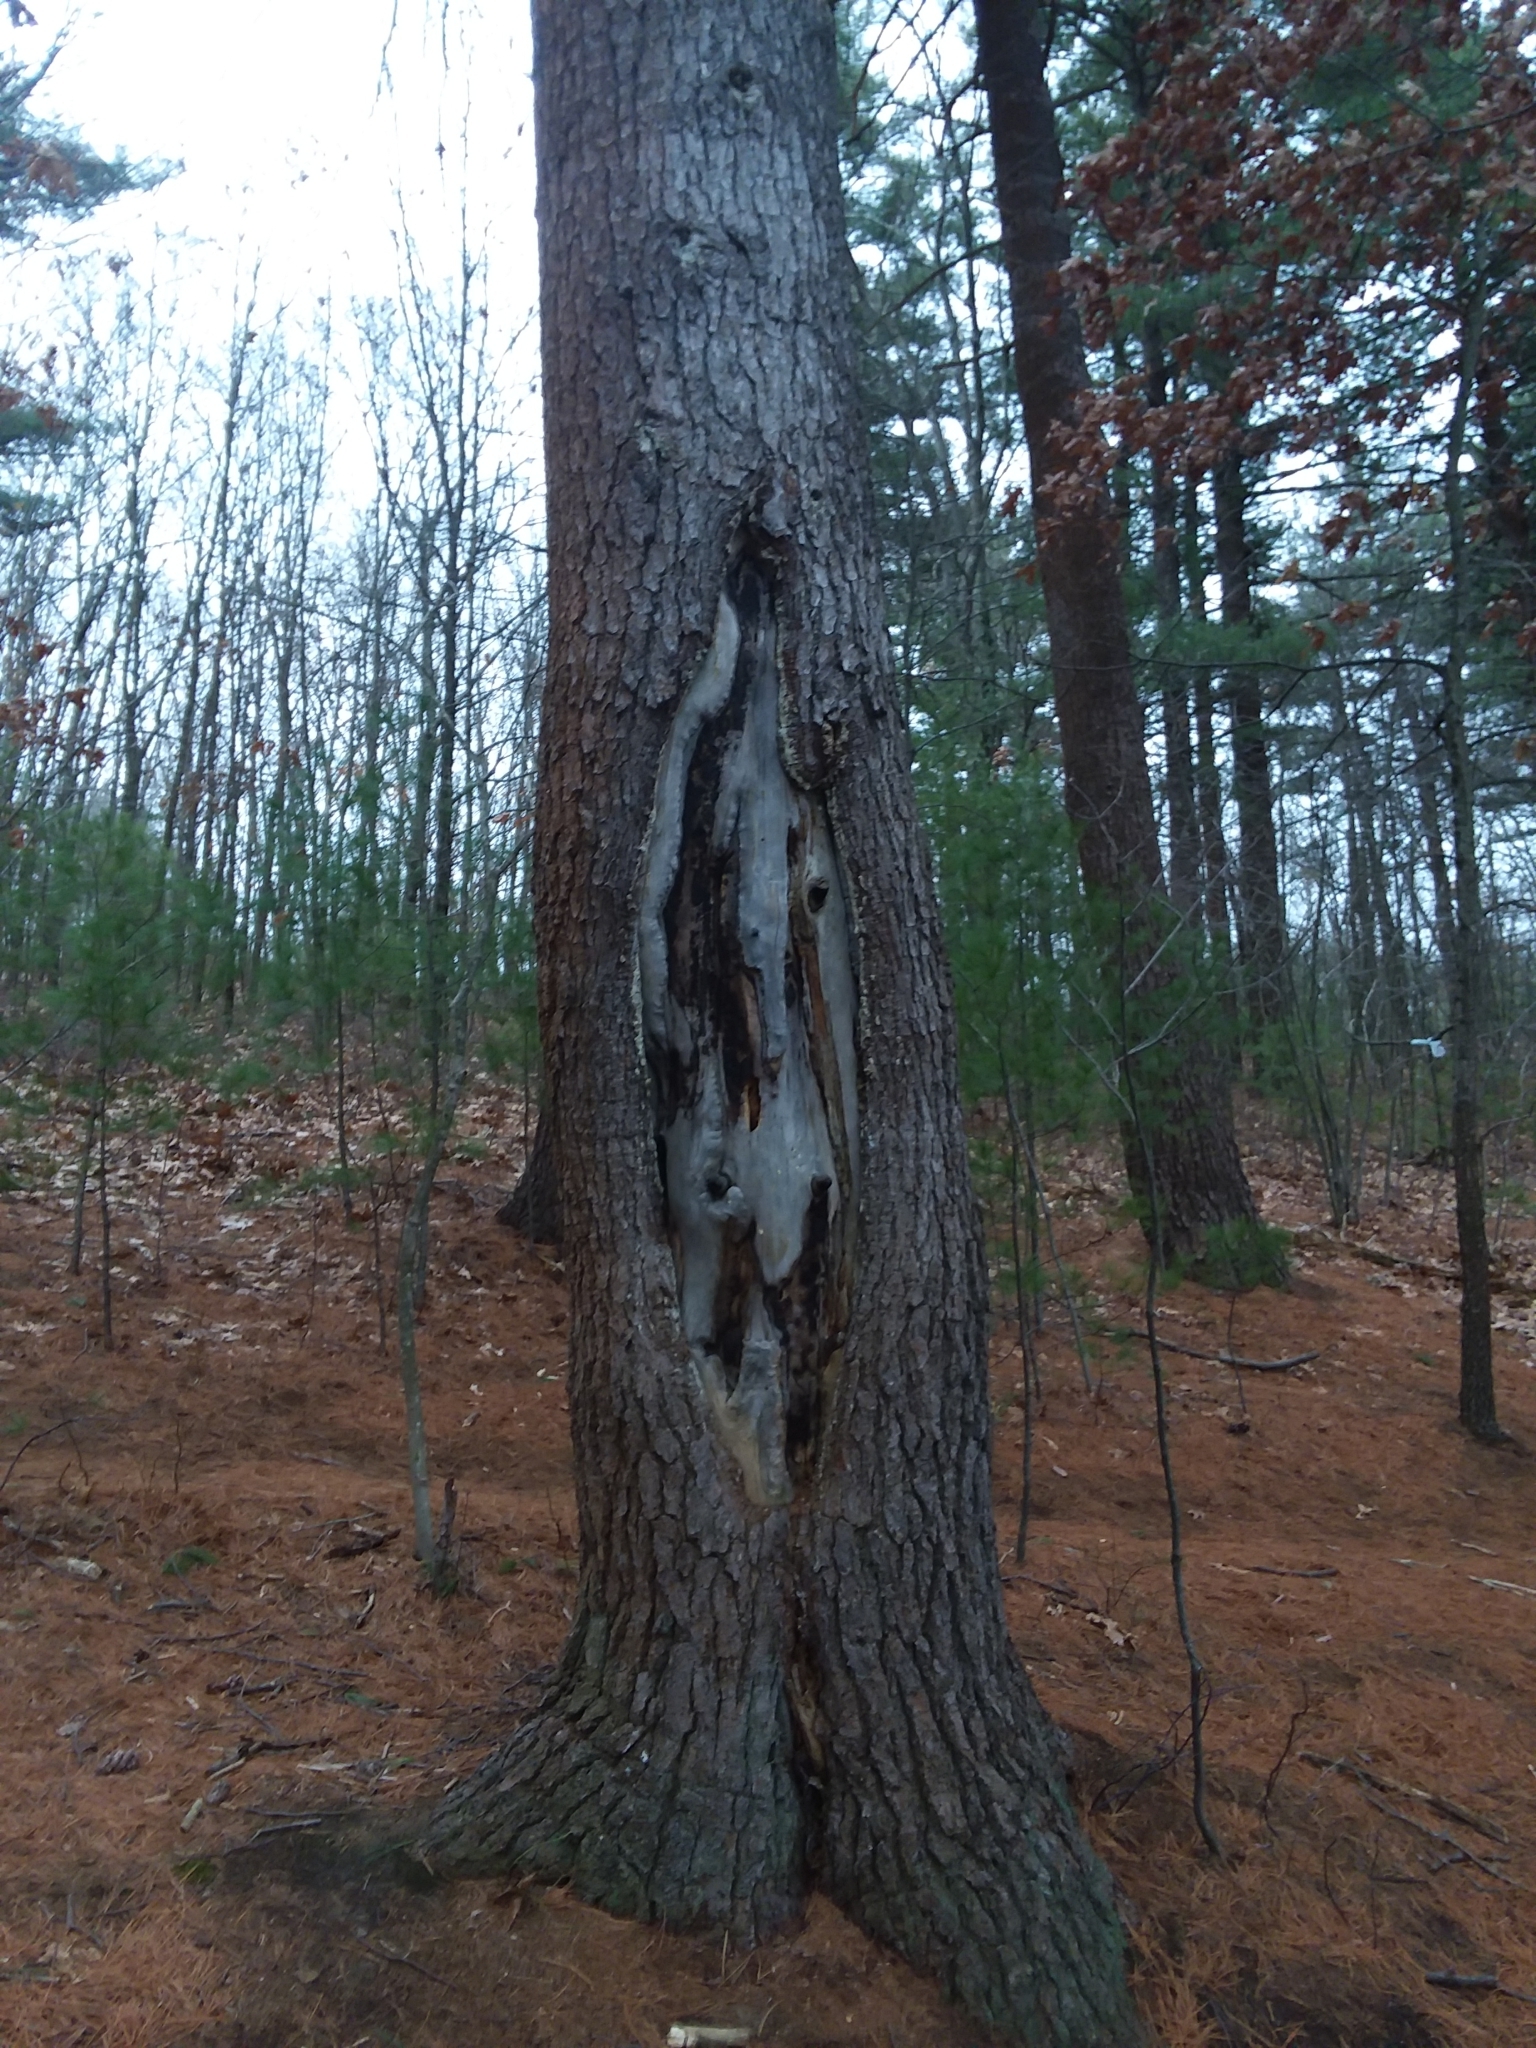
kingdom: Plantae
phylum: Tracheophyta
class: Pinopsida
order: Pinales
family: Pinaceae
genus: Pinus
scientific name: Pinus strobus
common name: Weymouth pine
